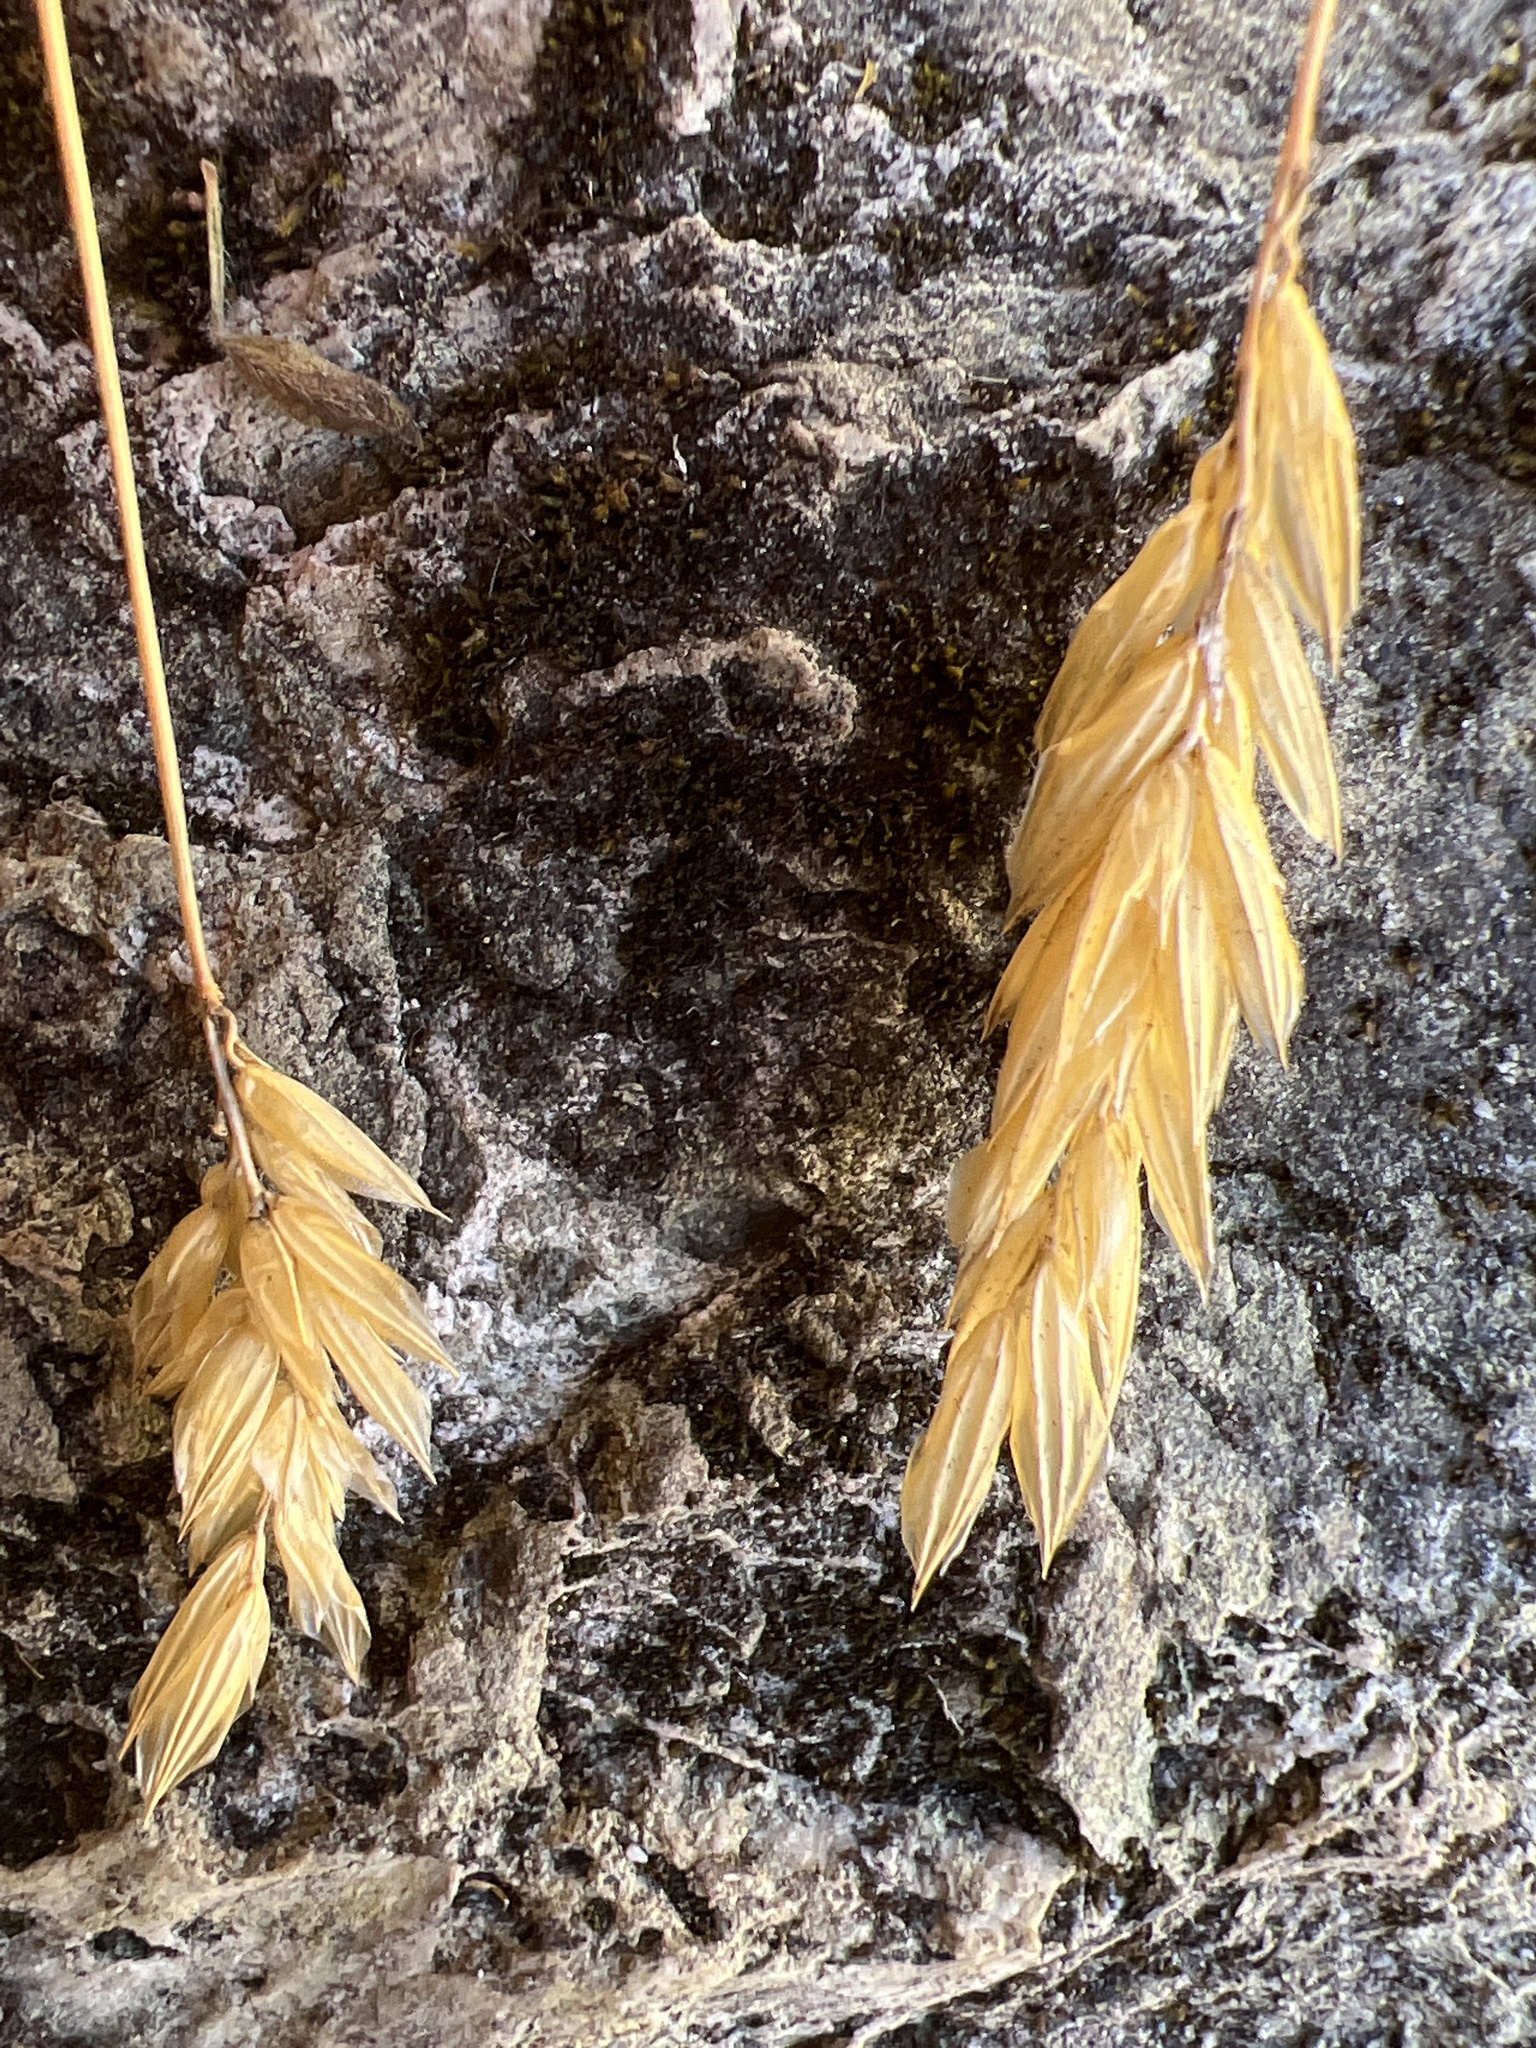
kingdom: Plantae
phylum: Tracheophyta
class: Liliopsida
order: Poales
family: Poaceae
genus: Anthoxanthum
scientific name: Anthoxanthum odoratum
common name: Sweet vernalgrass
